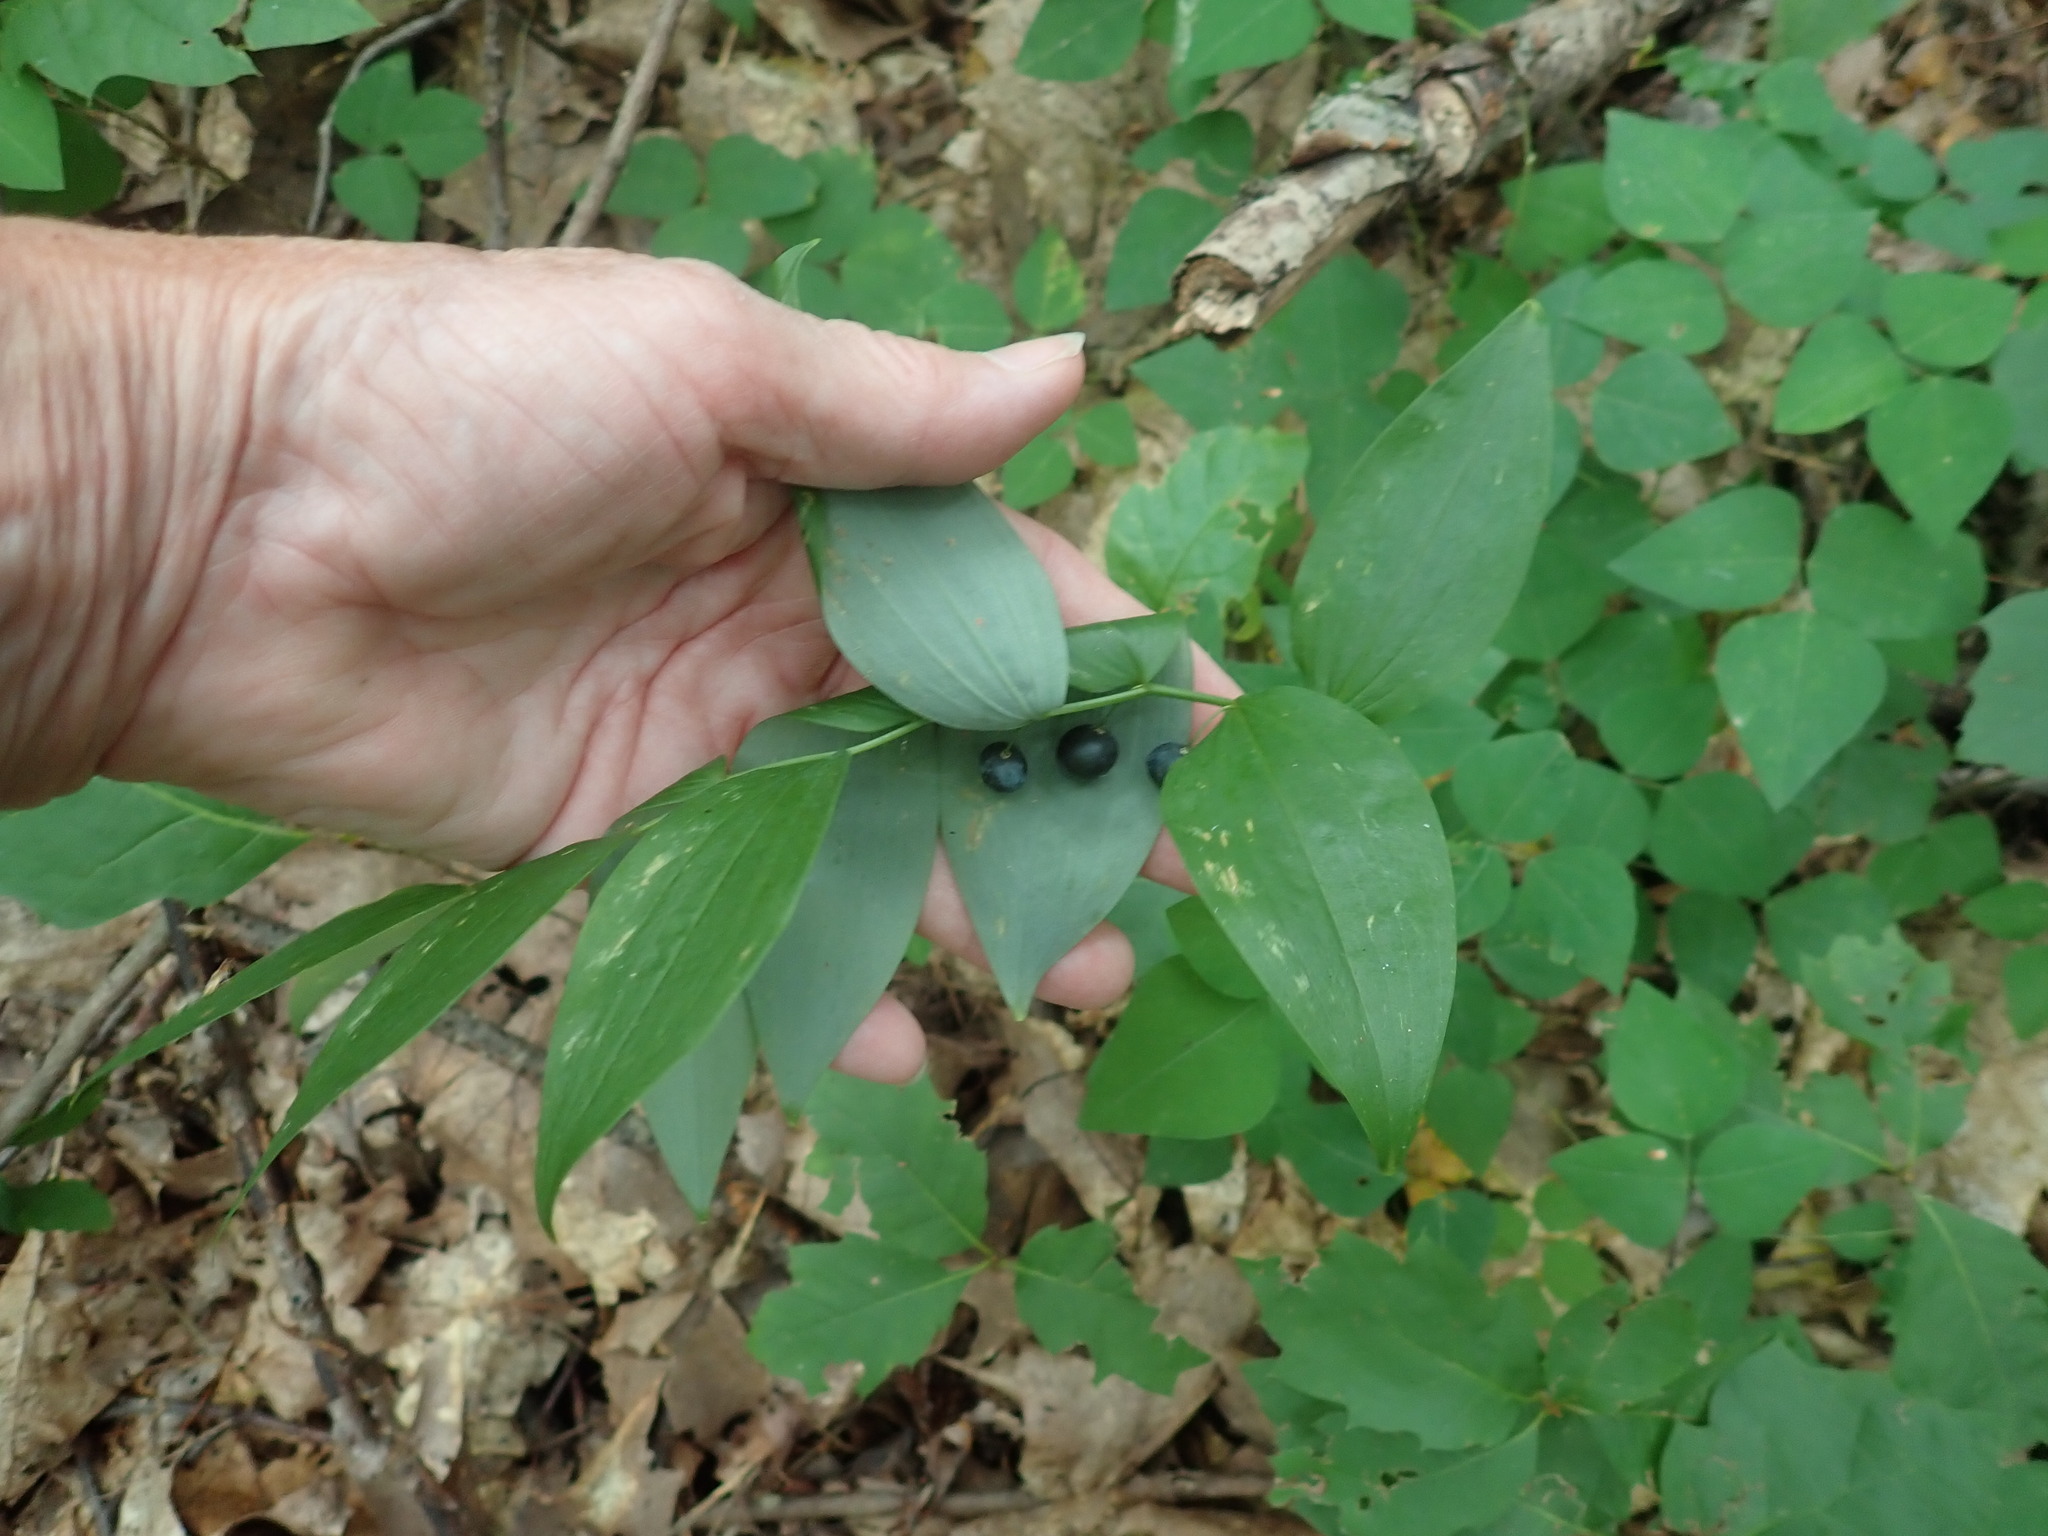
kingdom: Plantae
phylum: Tracheophyta
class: Liliopsida
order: Asparagales
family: Asparagaceae
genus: Polygonatum
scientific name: Polygonatum pubescens
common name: Downy solomon's seal
